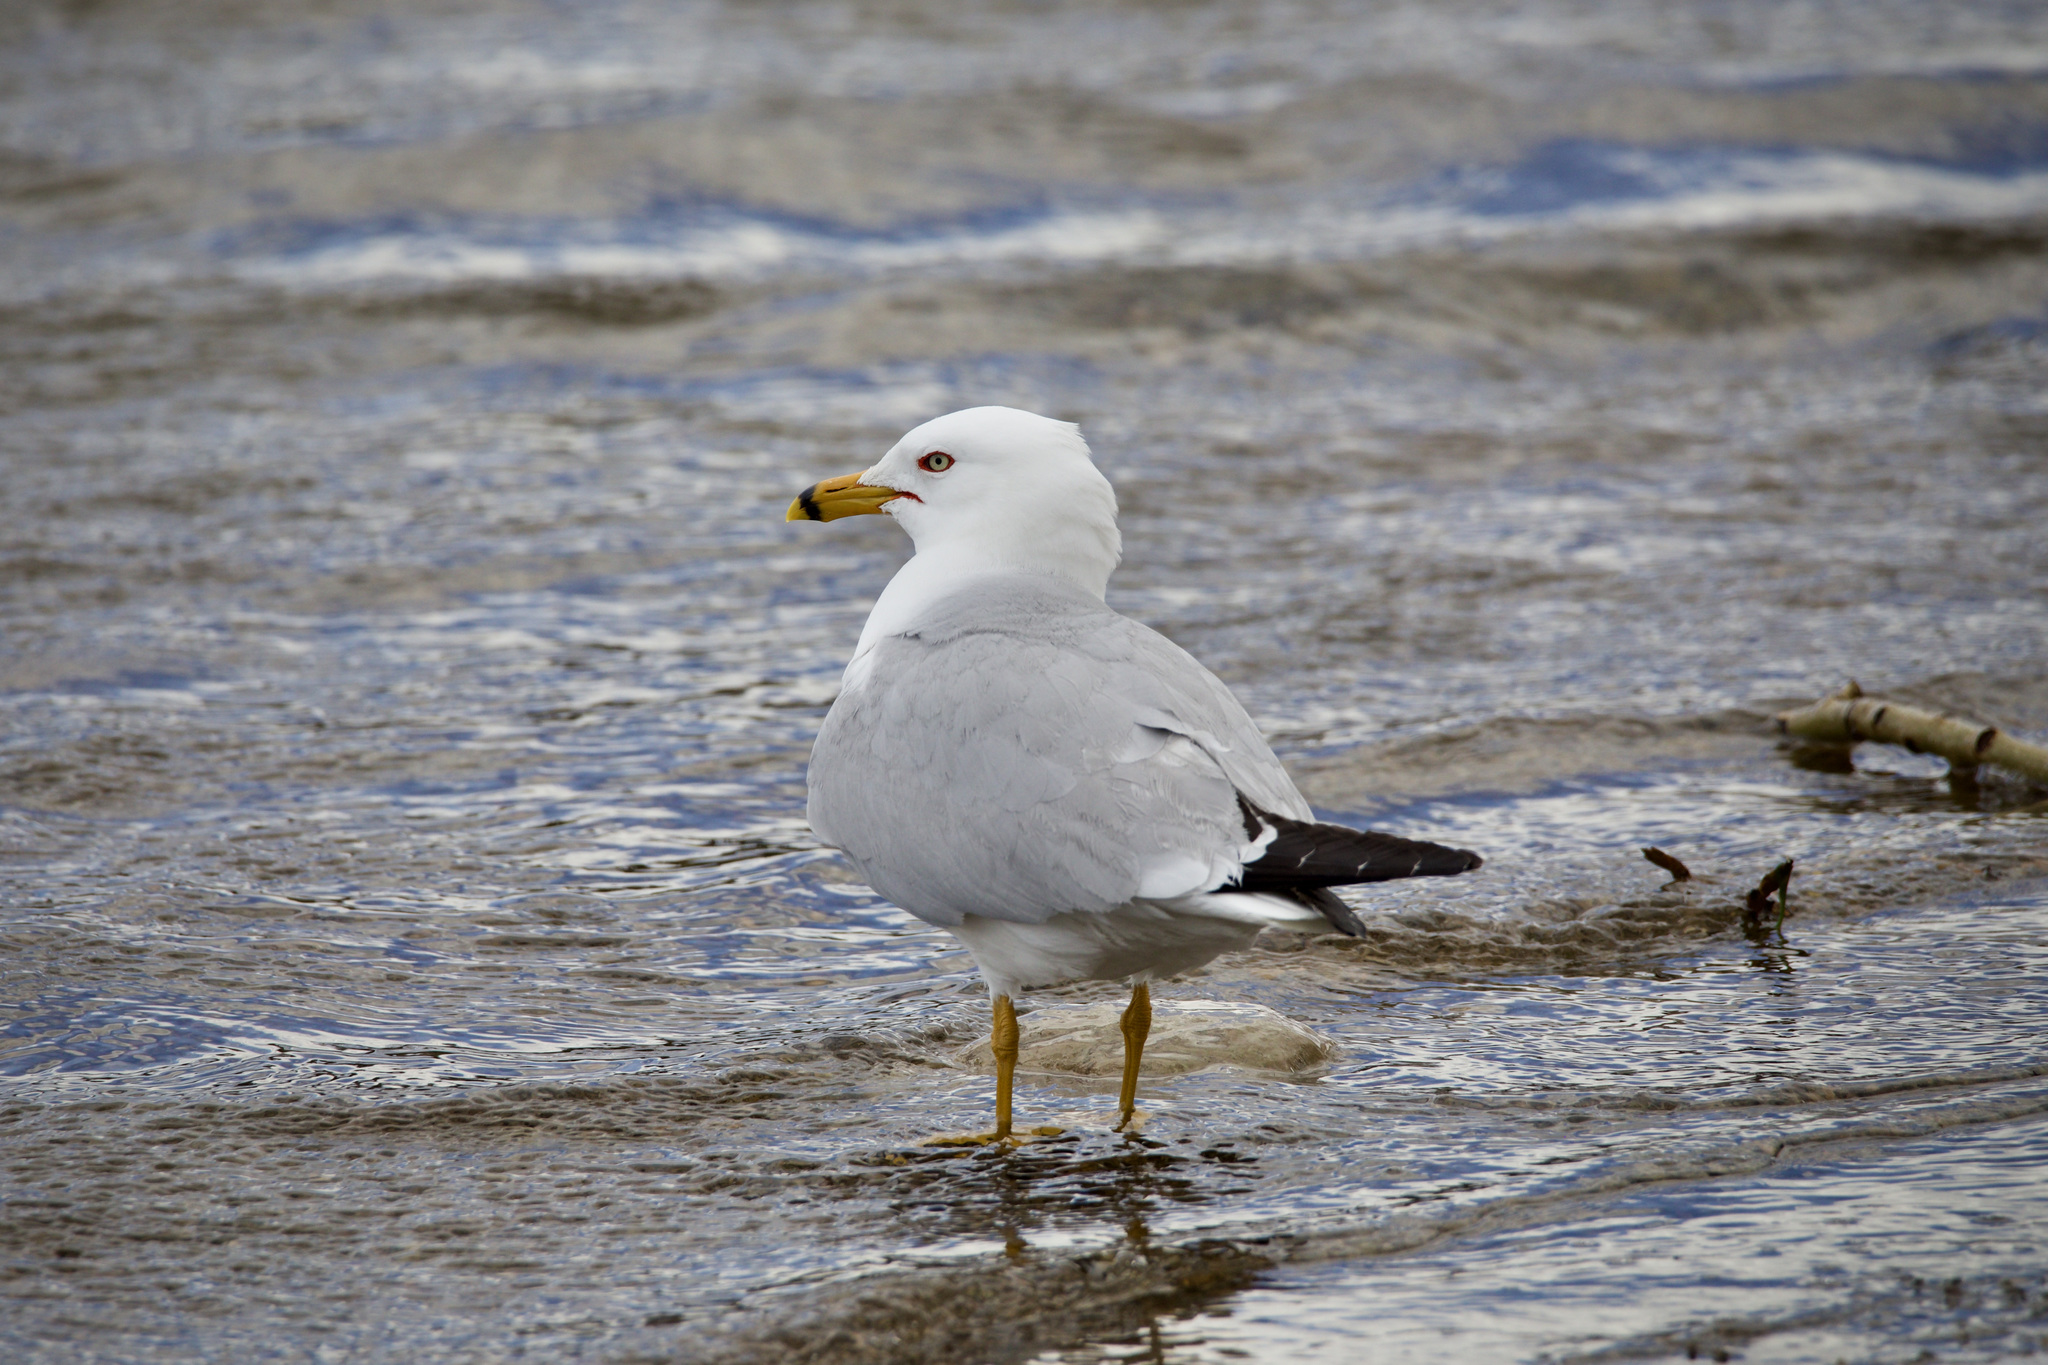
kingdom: Animalia
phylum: Chordata
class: Aves
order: Charadriiformes
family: Laridae
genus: Larus
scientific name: Larus delawarensis
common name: Ring-billed gull
